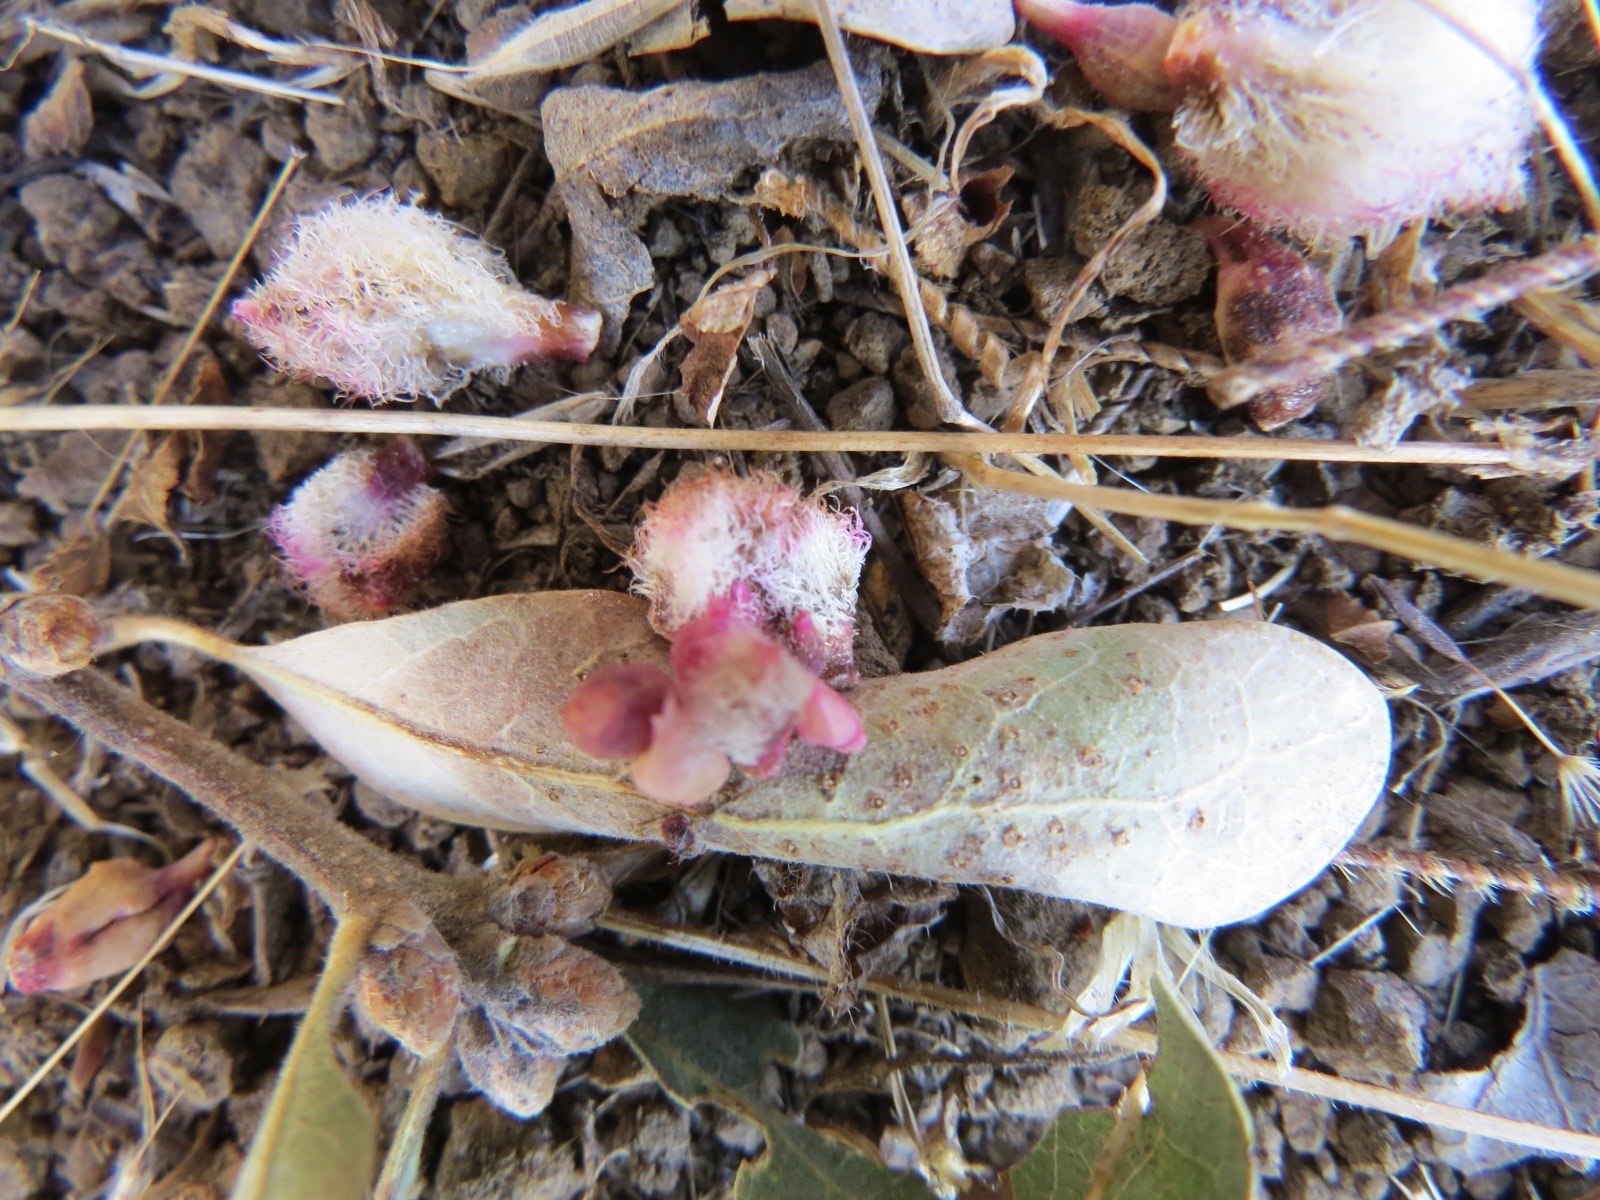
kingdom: Animalia
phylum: Arthropoda
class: Insecta
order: Hymenoptera
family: Cynipidae
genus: Andricus
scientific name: Andricus
